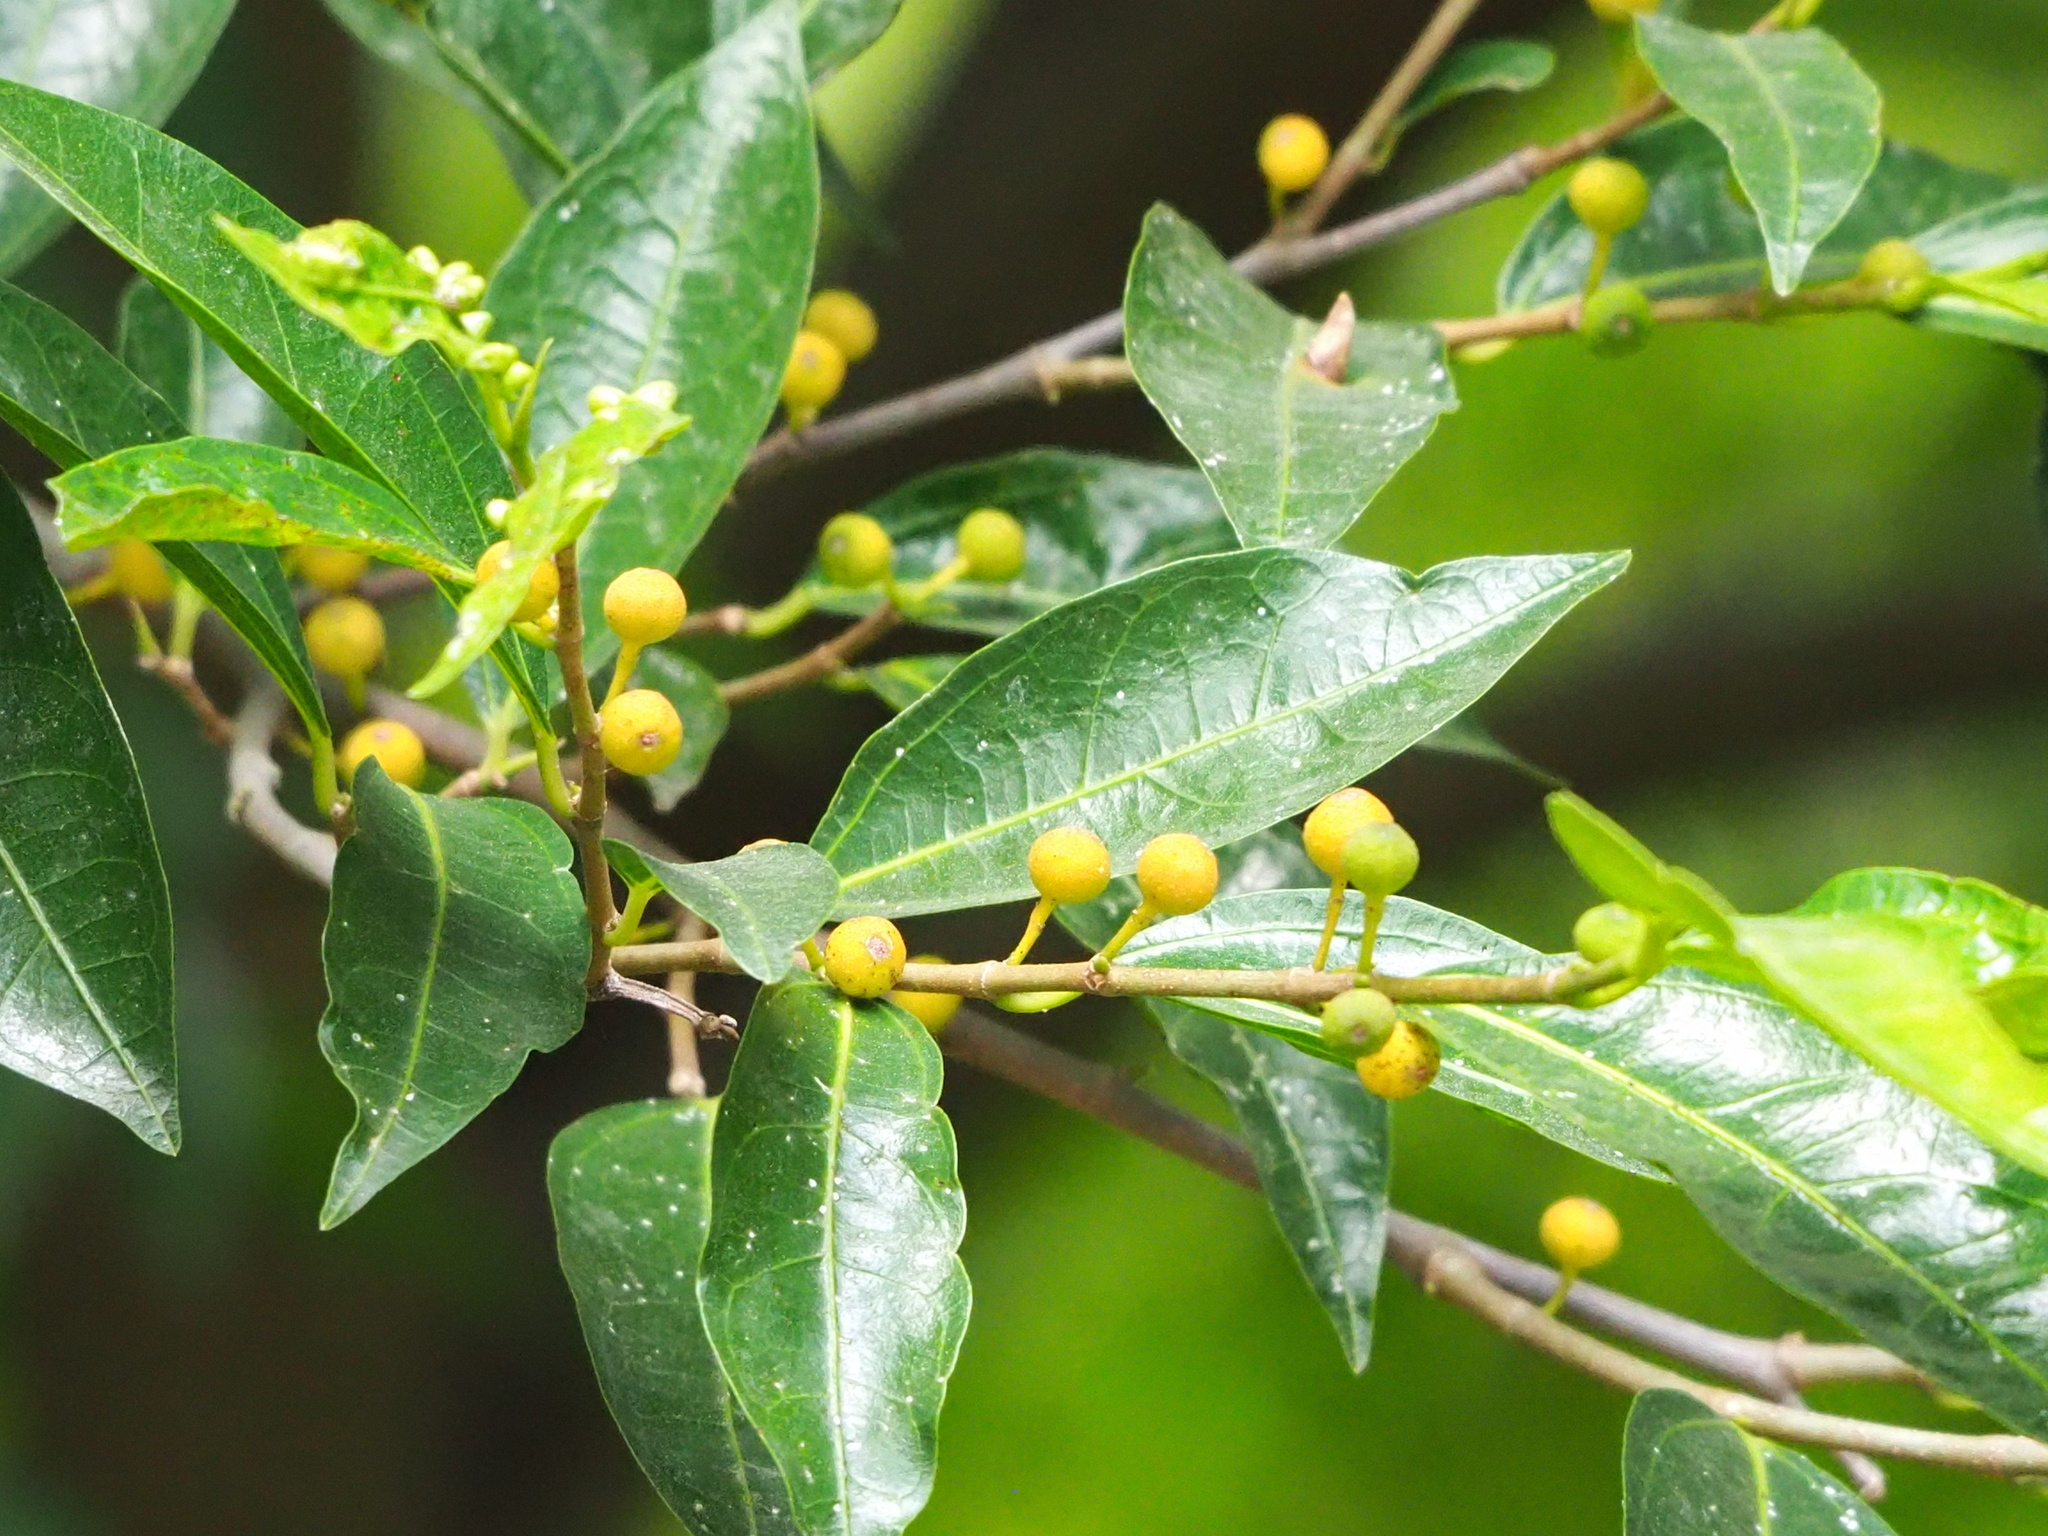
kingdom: Plantae
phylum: Tracheophyta
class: Magnoliopsida
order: Rosales
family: Moraceae
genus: Ficus
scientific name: Ficus ampelos
